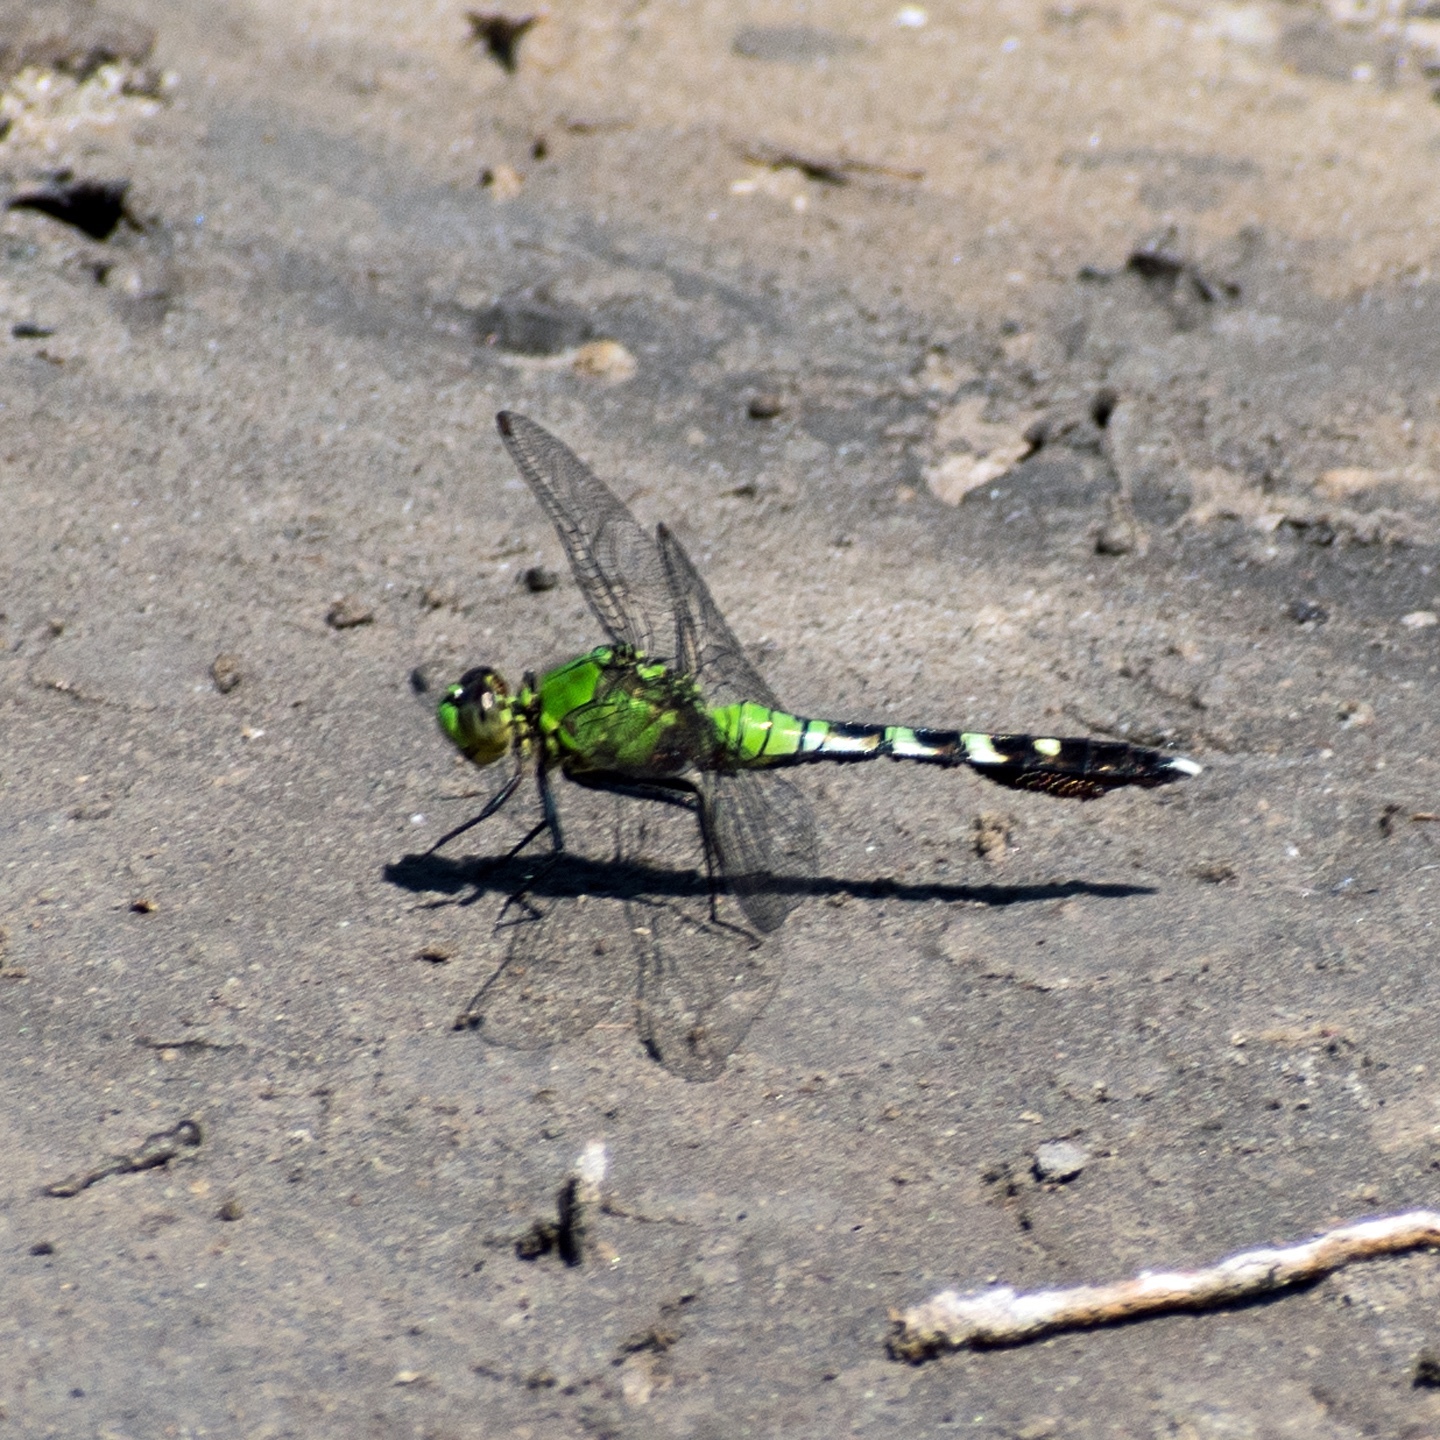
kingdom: Animalia
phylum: Arthropoda
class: Insecta
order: Odonata
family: Libellulidae
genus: Erythemis
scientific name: Erythemis simplicicollis
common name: Eastern pondhawk
